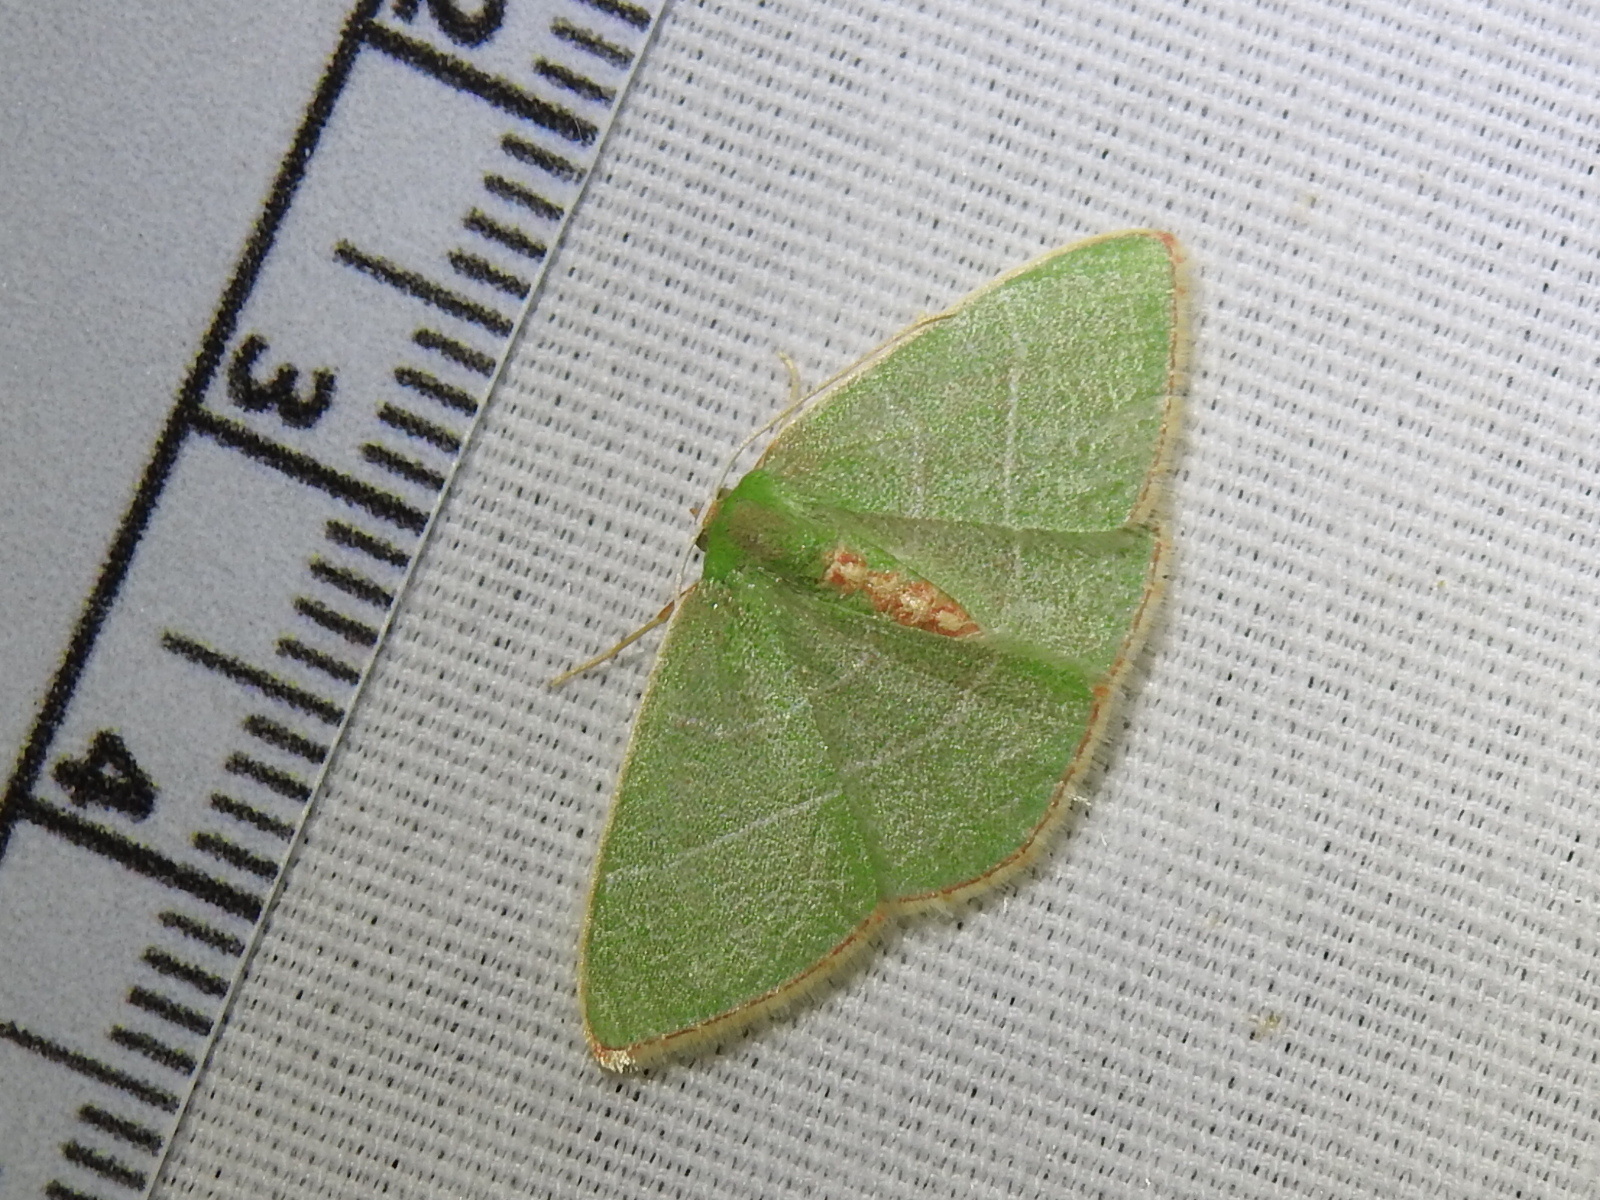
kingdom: Animalia
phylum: Arthropoda
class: Insecta
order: Lepidoptera
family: Geometridae
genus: Nemoria
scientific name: Nemoria bistriaria
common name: Red-fringed emerald
